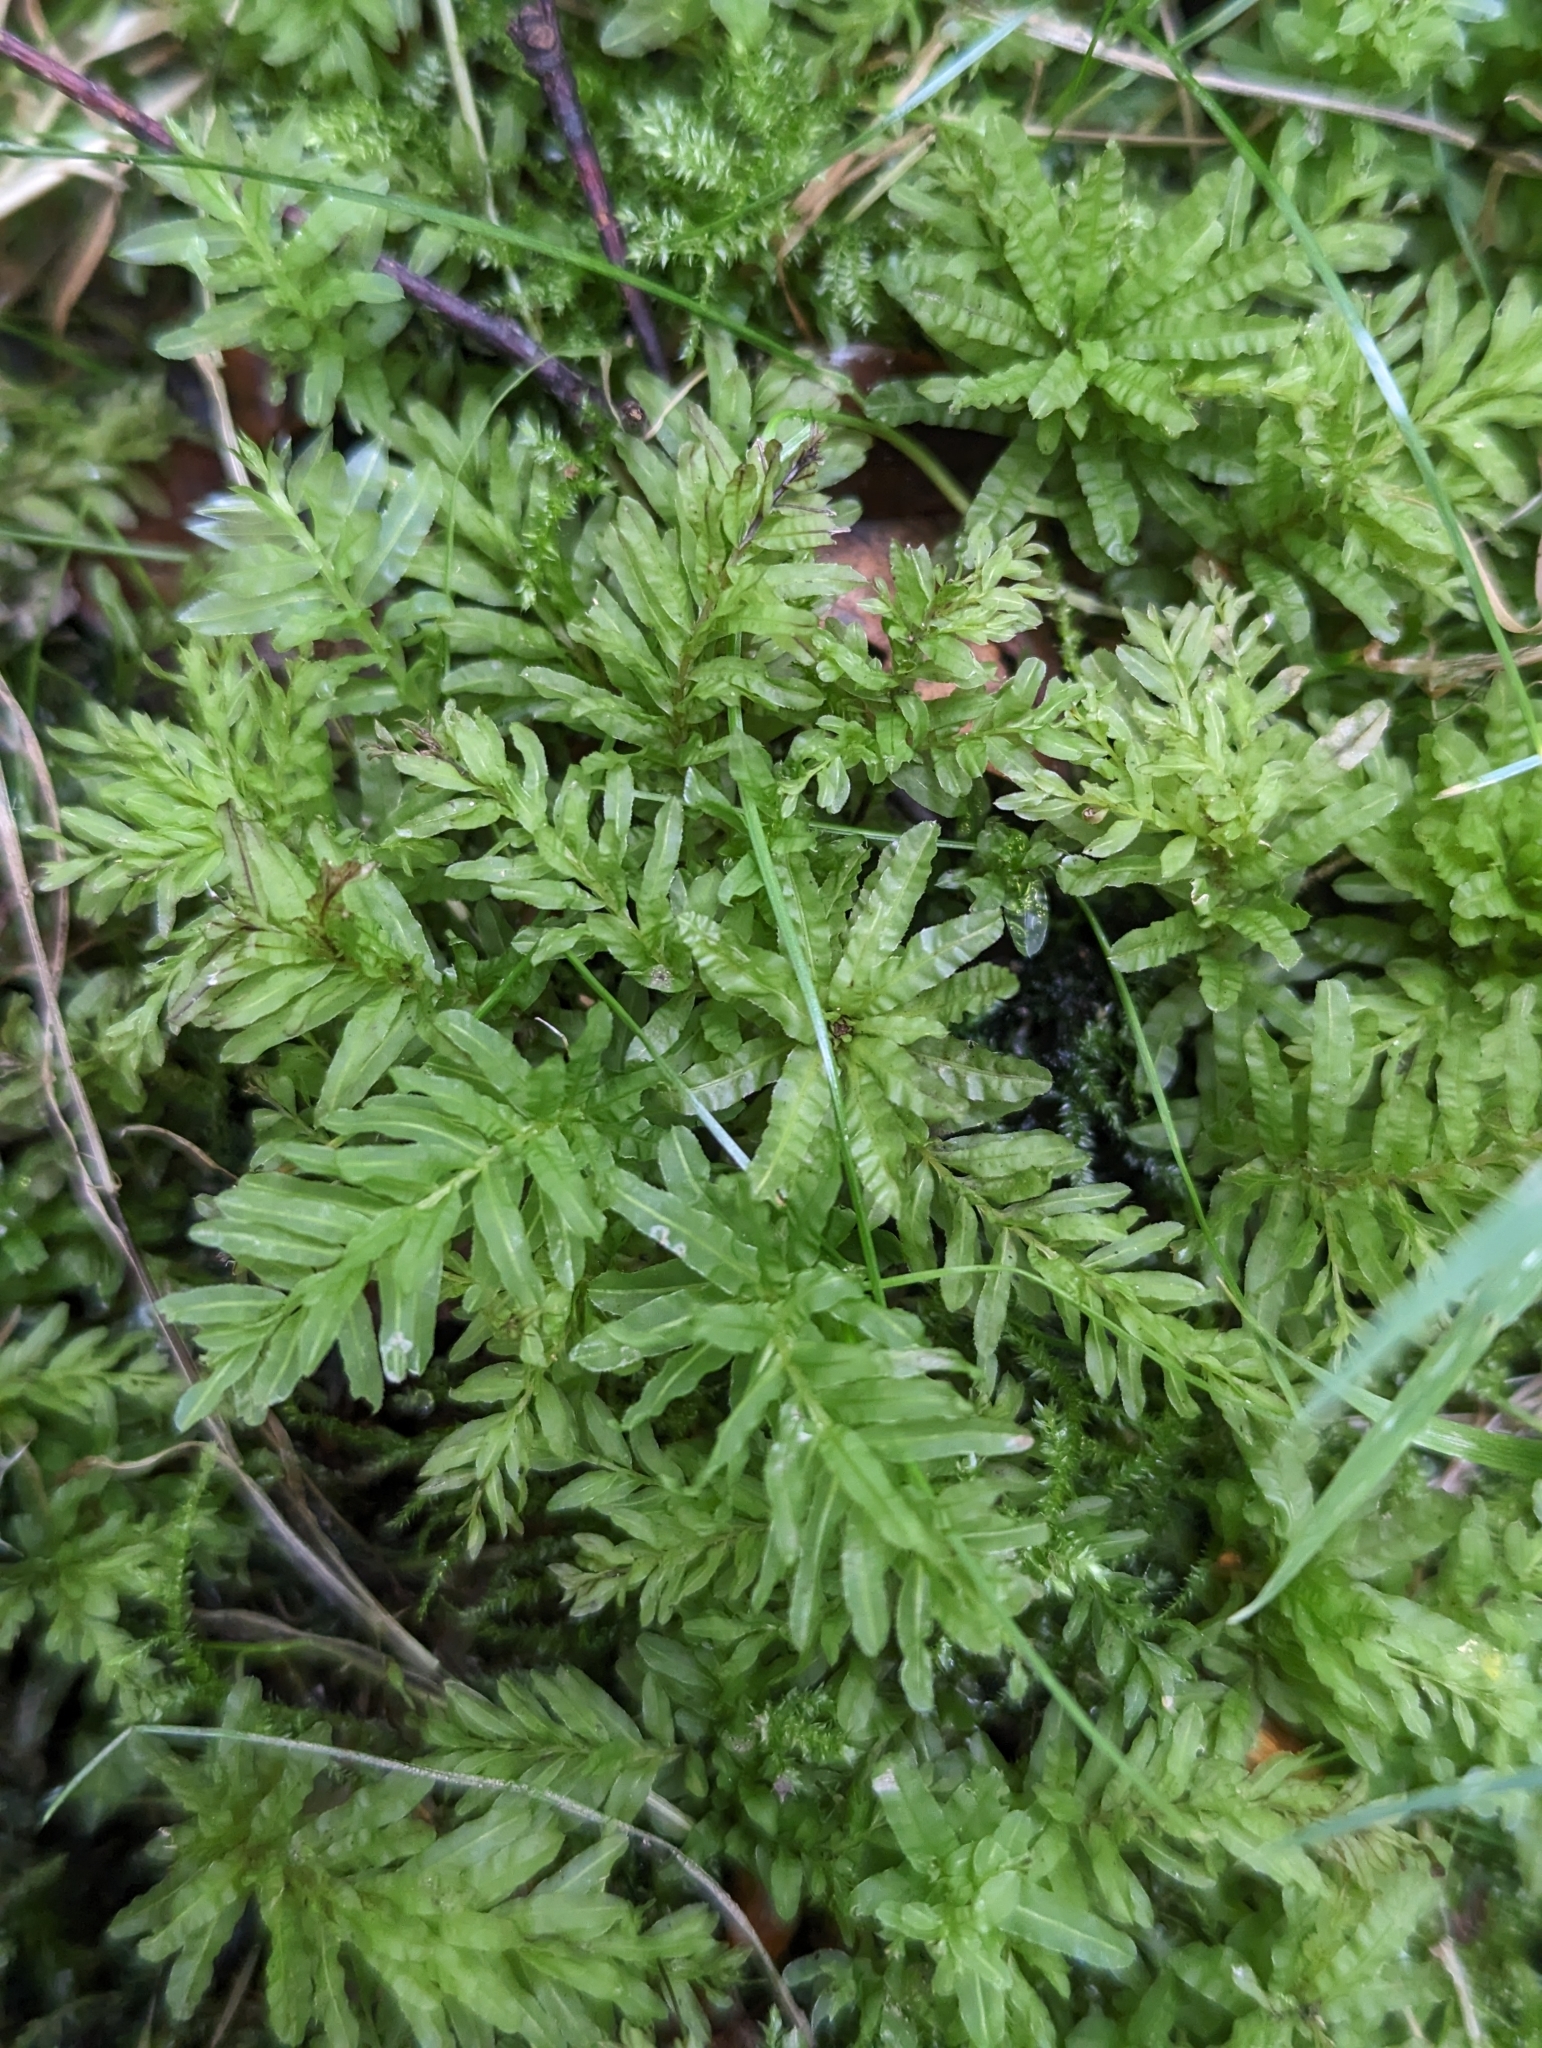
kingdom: Plantae
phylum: Bryophyta
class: Bryopsida
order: Bryales
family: Mniaceae
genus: Plagiomnium
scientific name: Plagiomnium undulatum
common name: Hart's-tongue thyme-moss
